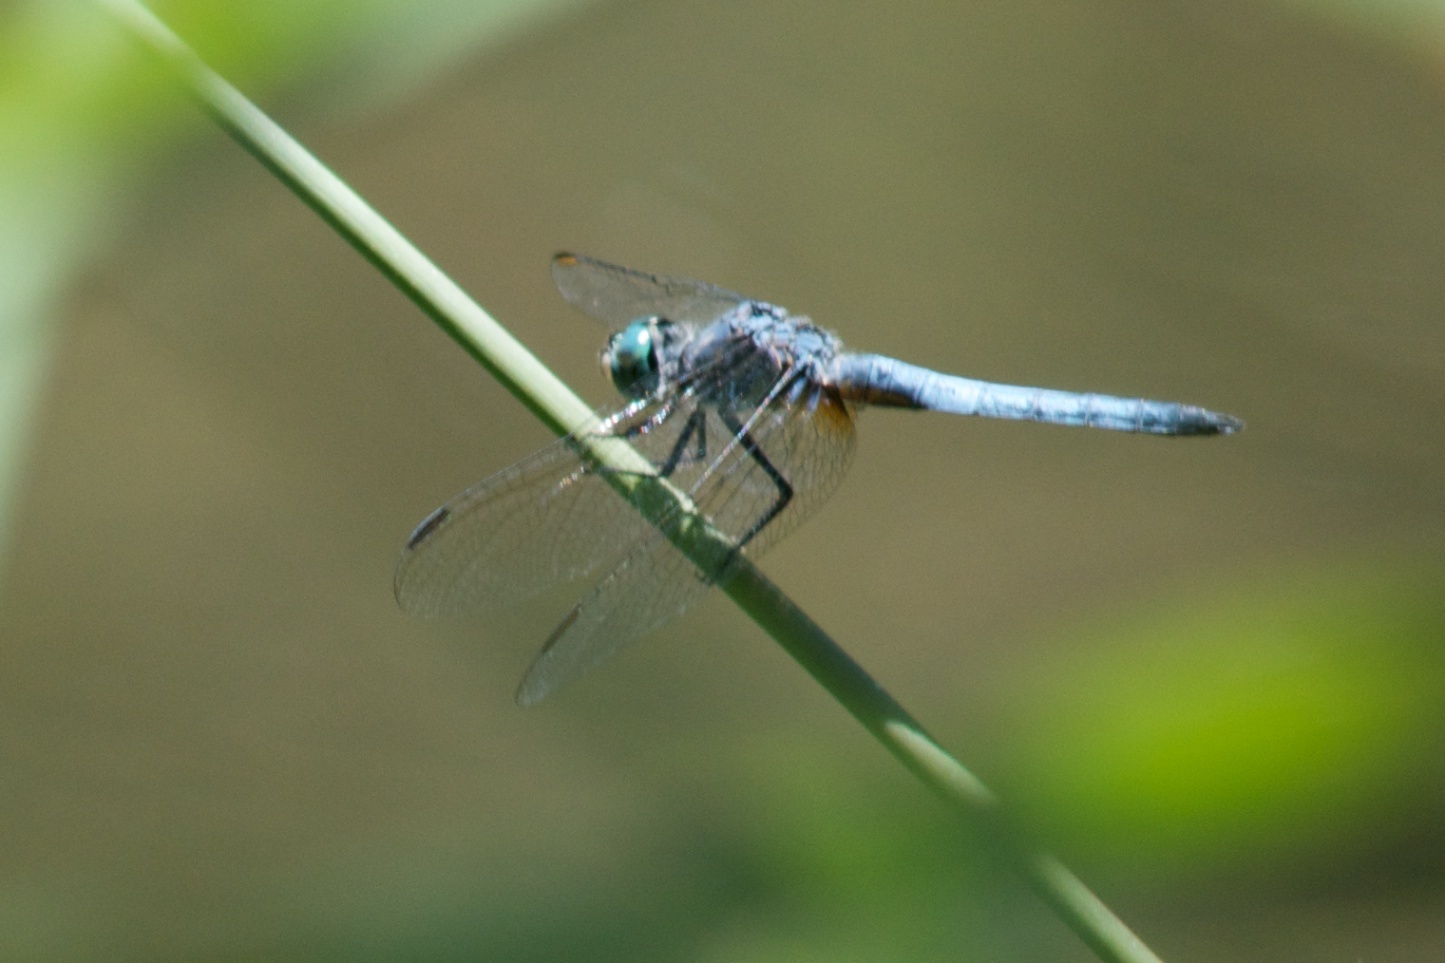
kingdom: Animalia
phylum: Arthropoda
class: Insecta
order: Odonata
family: Libellulidae
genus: Pachydiplax
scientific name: Pachydiplax longipennis
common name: Blue dasher
